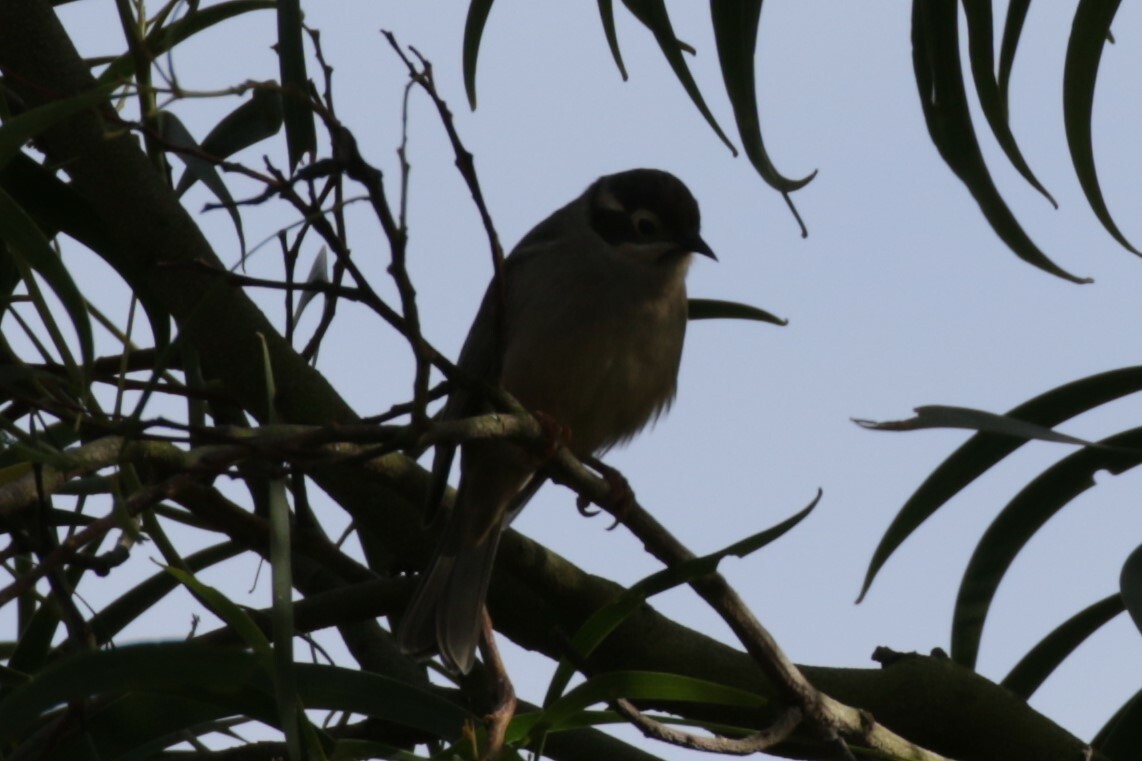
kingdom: Animalia
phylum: Chordata
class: Aves
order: Passeriformes
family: Meliphagidae
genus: Melithreptus
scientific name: Melithreptus brevirostris
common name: Brown-headed honeyeater
